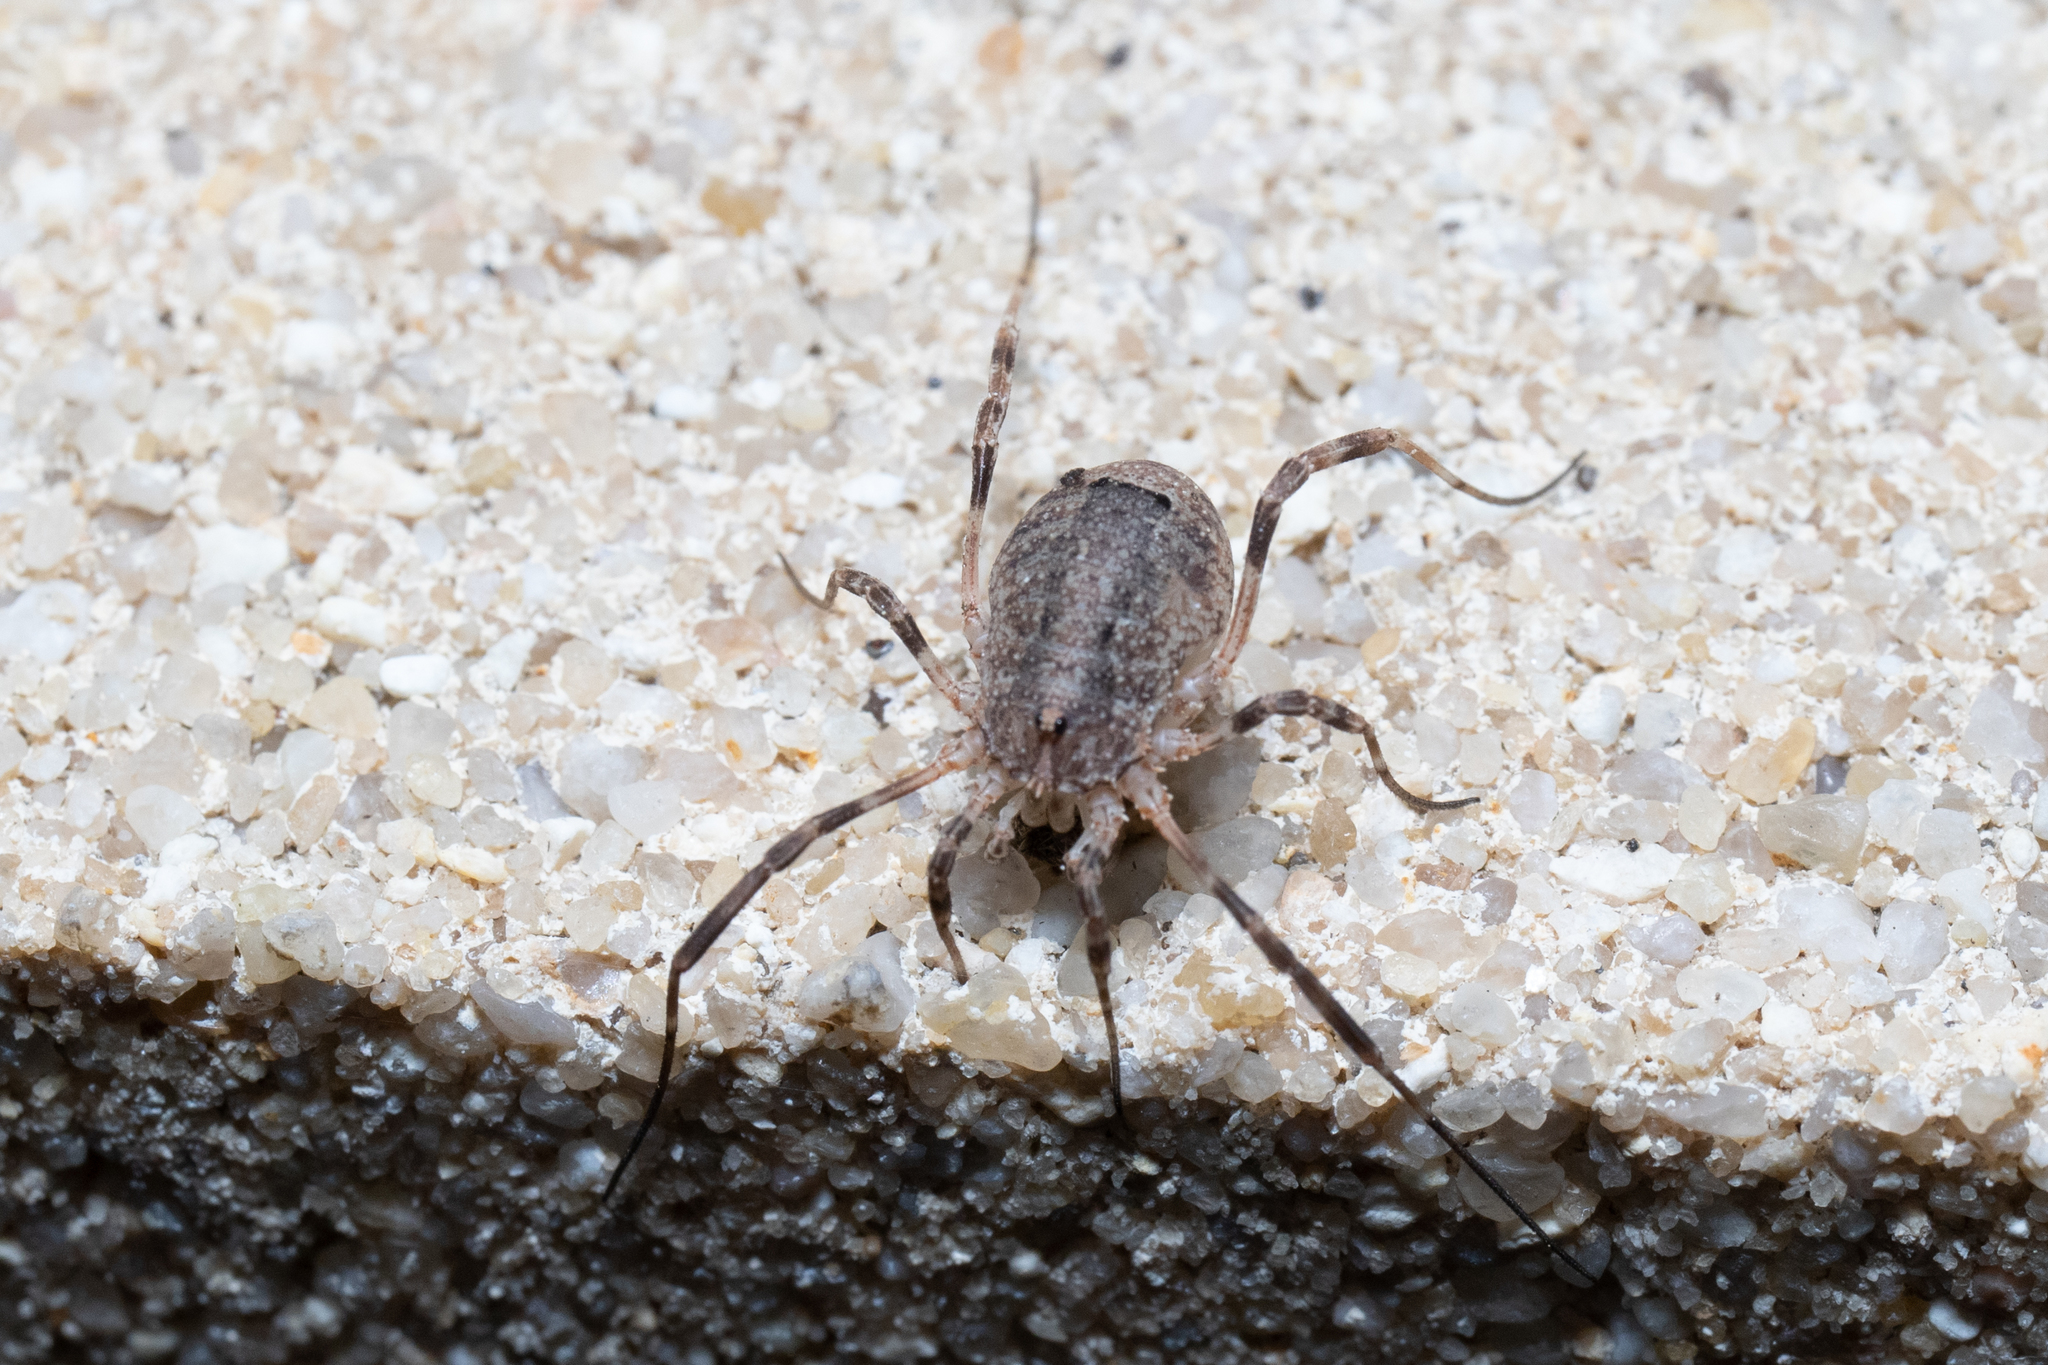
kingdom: Animalia
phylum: Arthropoda
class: Arachnida
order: Opiliones
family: Phalangiidae
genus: Odiellus
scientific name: Odiellus spinosus
